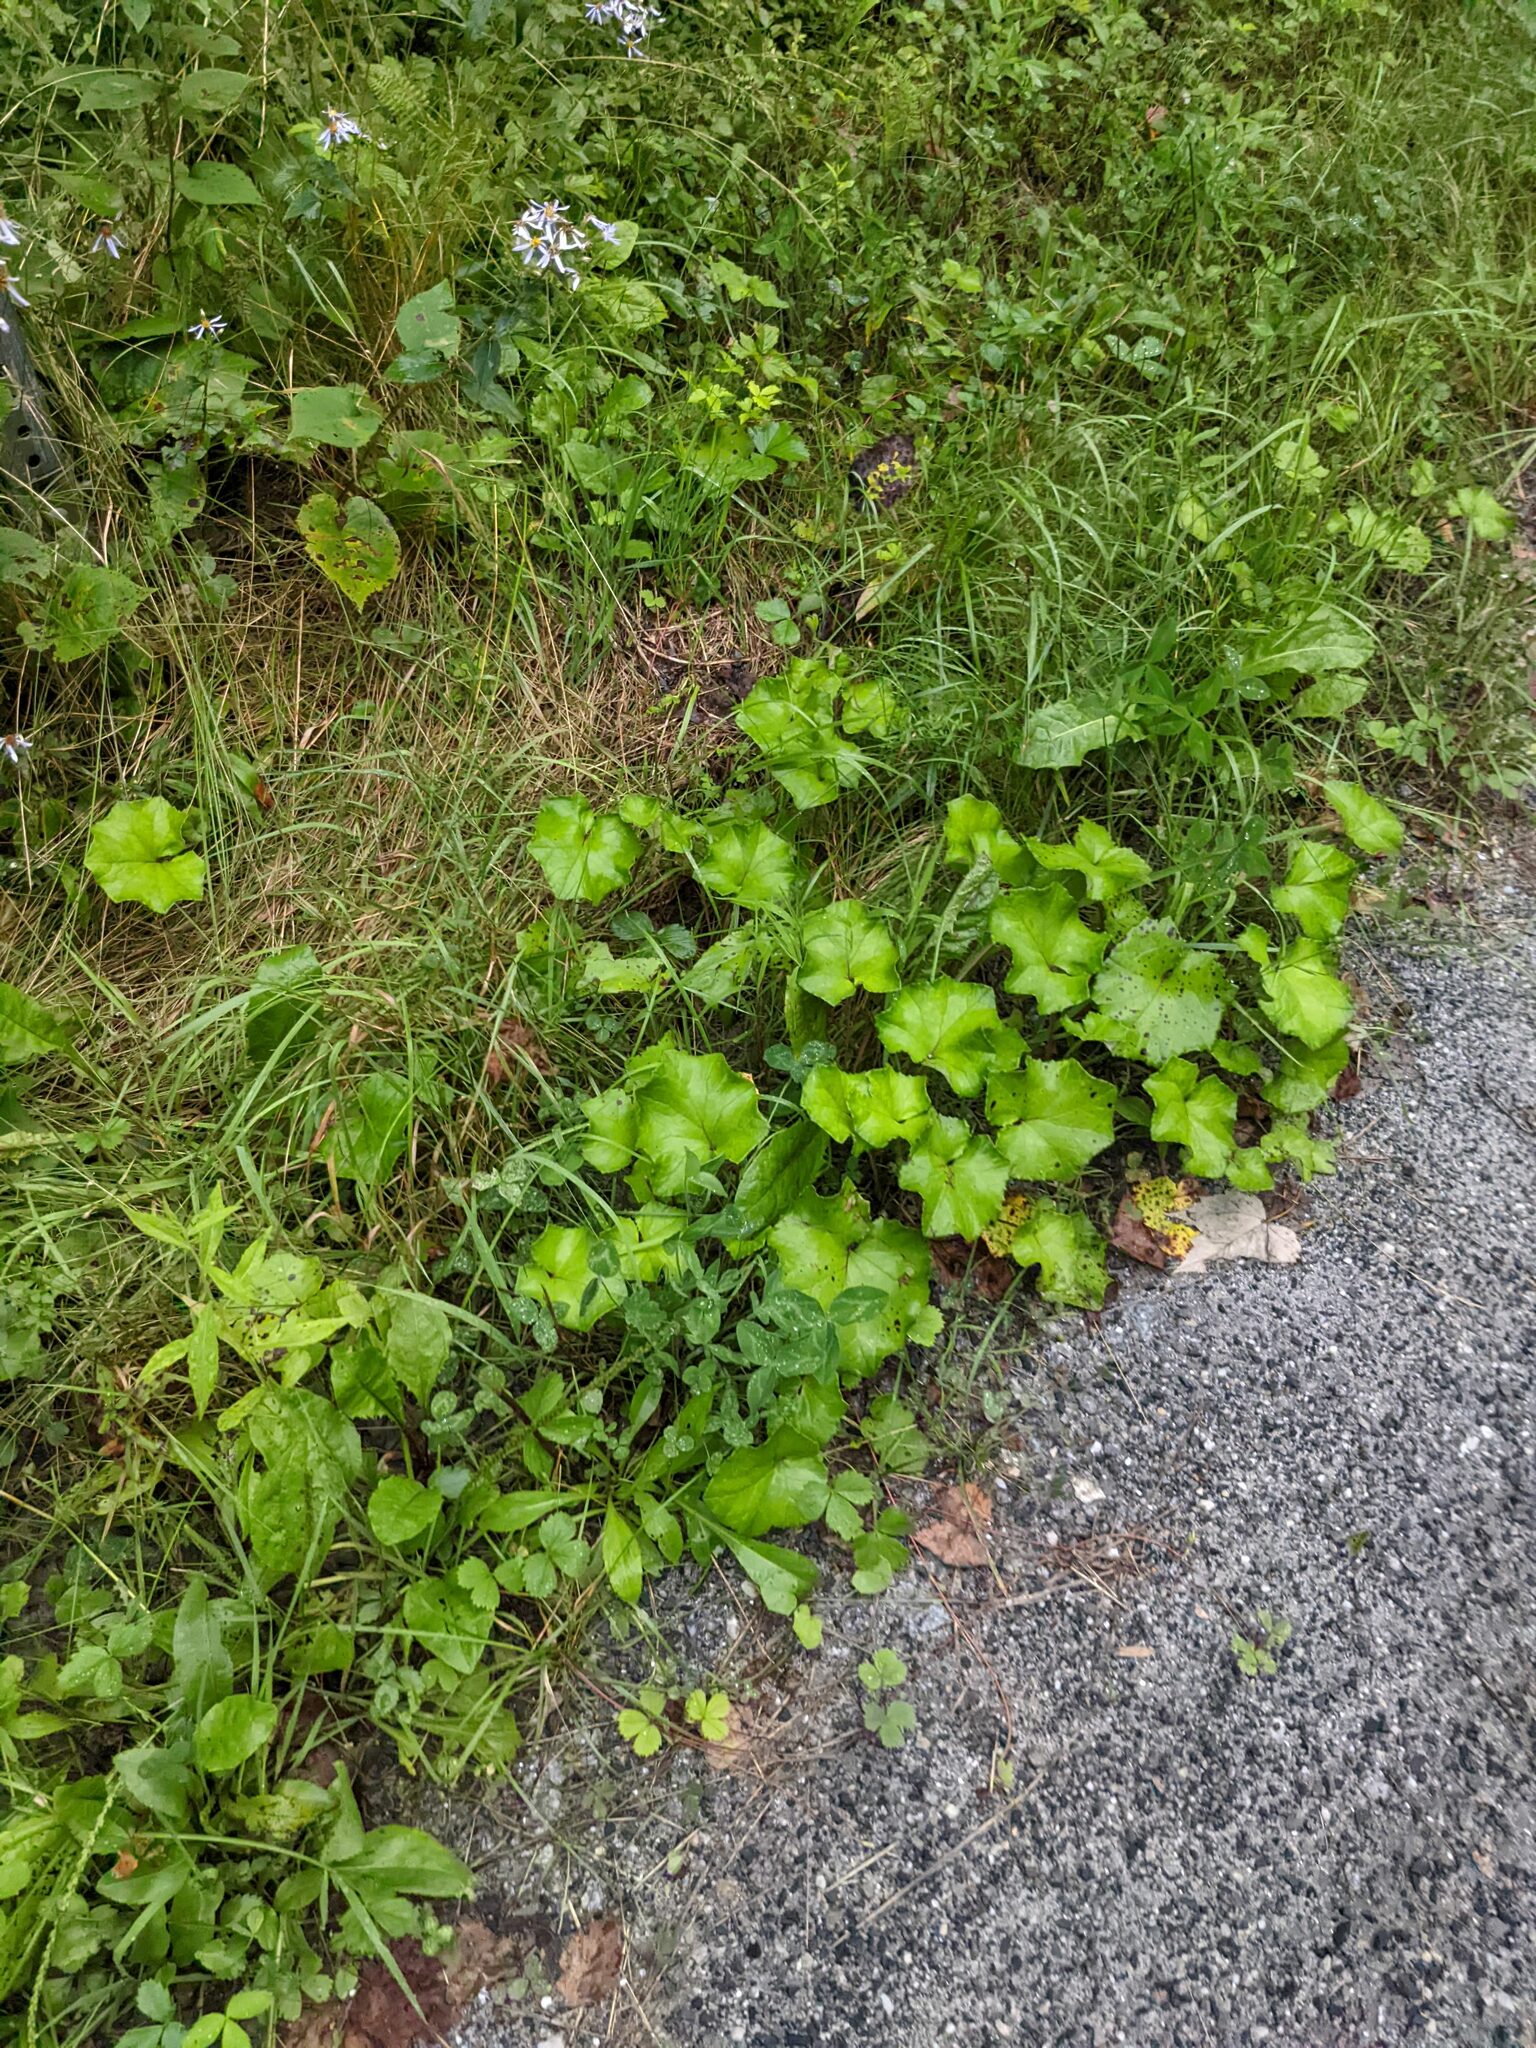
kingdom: Plantae
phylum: Tracheophyta
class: Magnoliopsida
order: Asterales
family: Asteraceae
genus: Tussilago
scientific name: Tussilago farfara
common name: Coltsfoot
